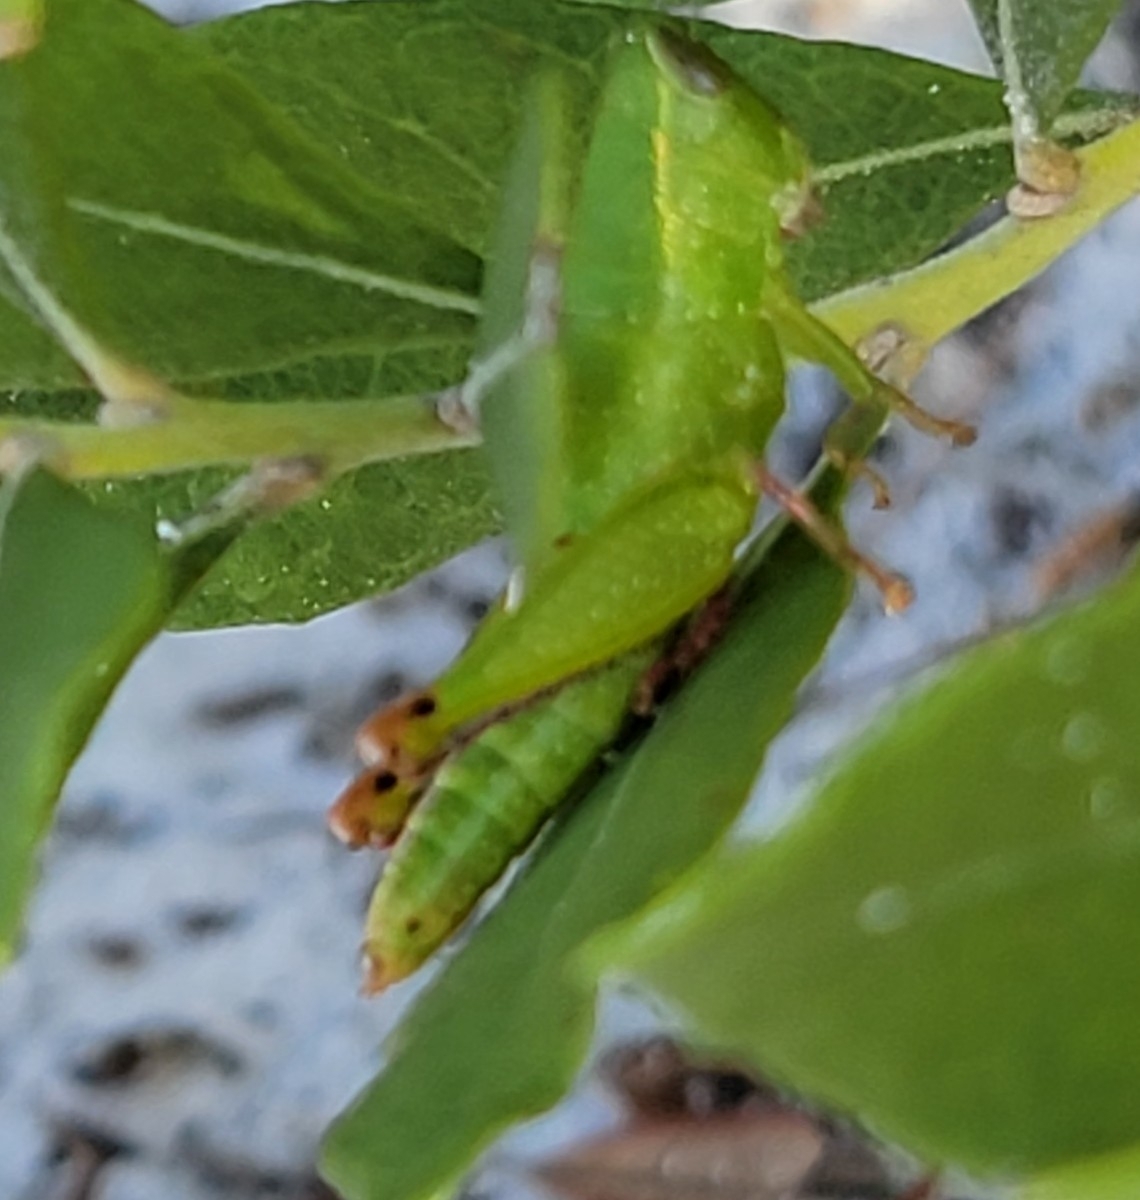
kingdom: Animalia
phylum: Arthropoda
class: Insecta
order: Orthoptera
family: Acrididae
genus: Floritettix
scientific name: Floritettix coquinae
